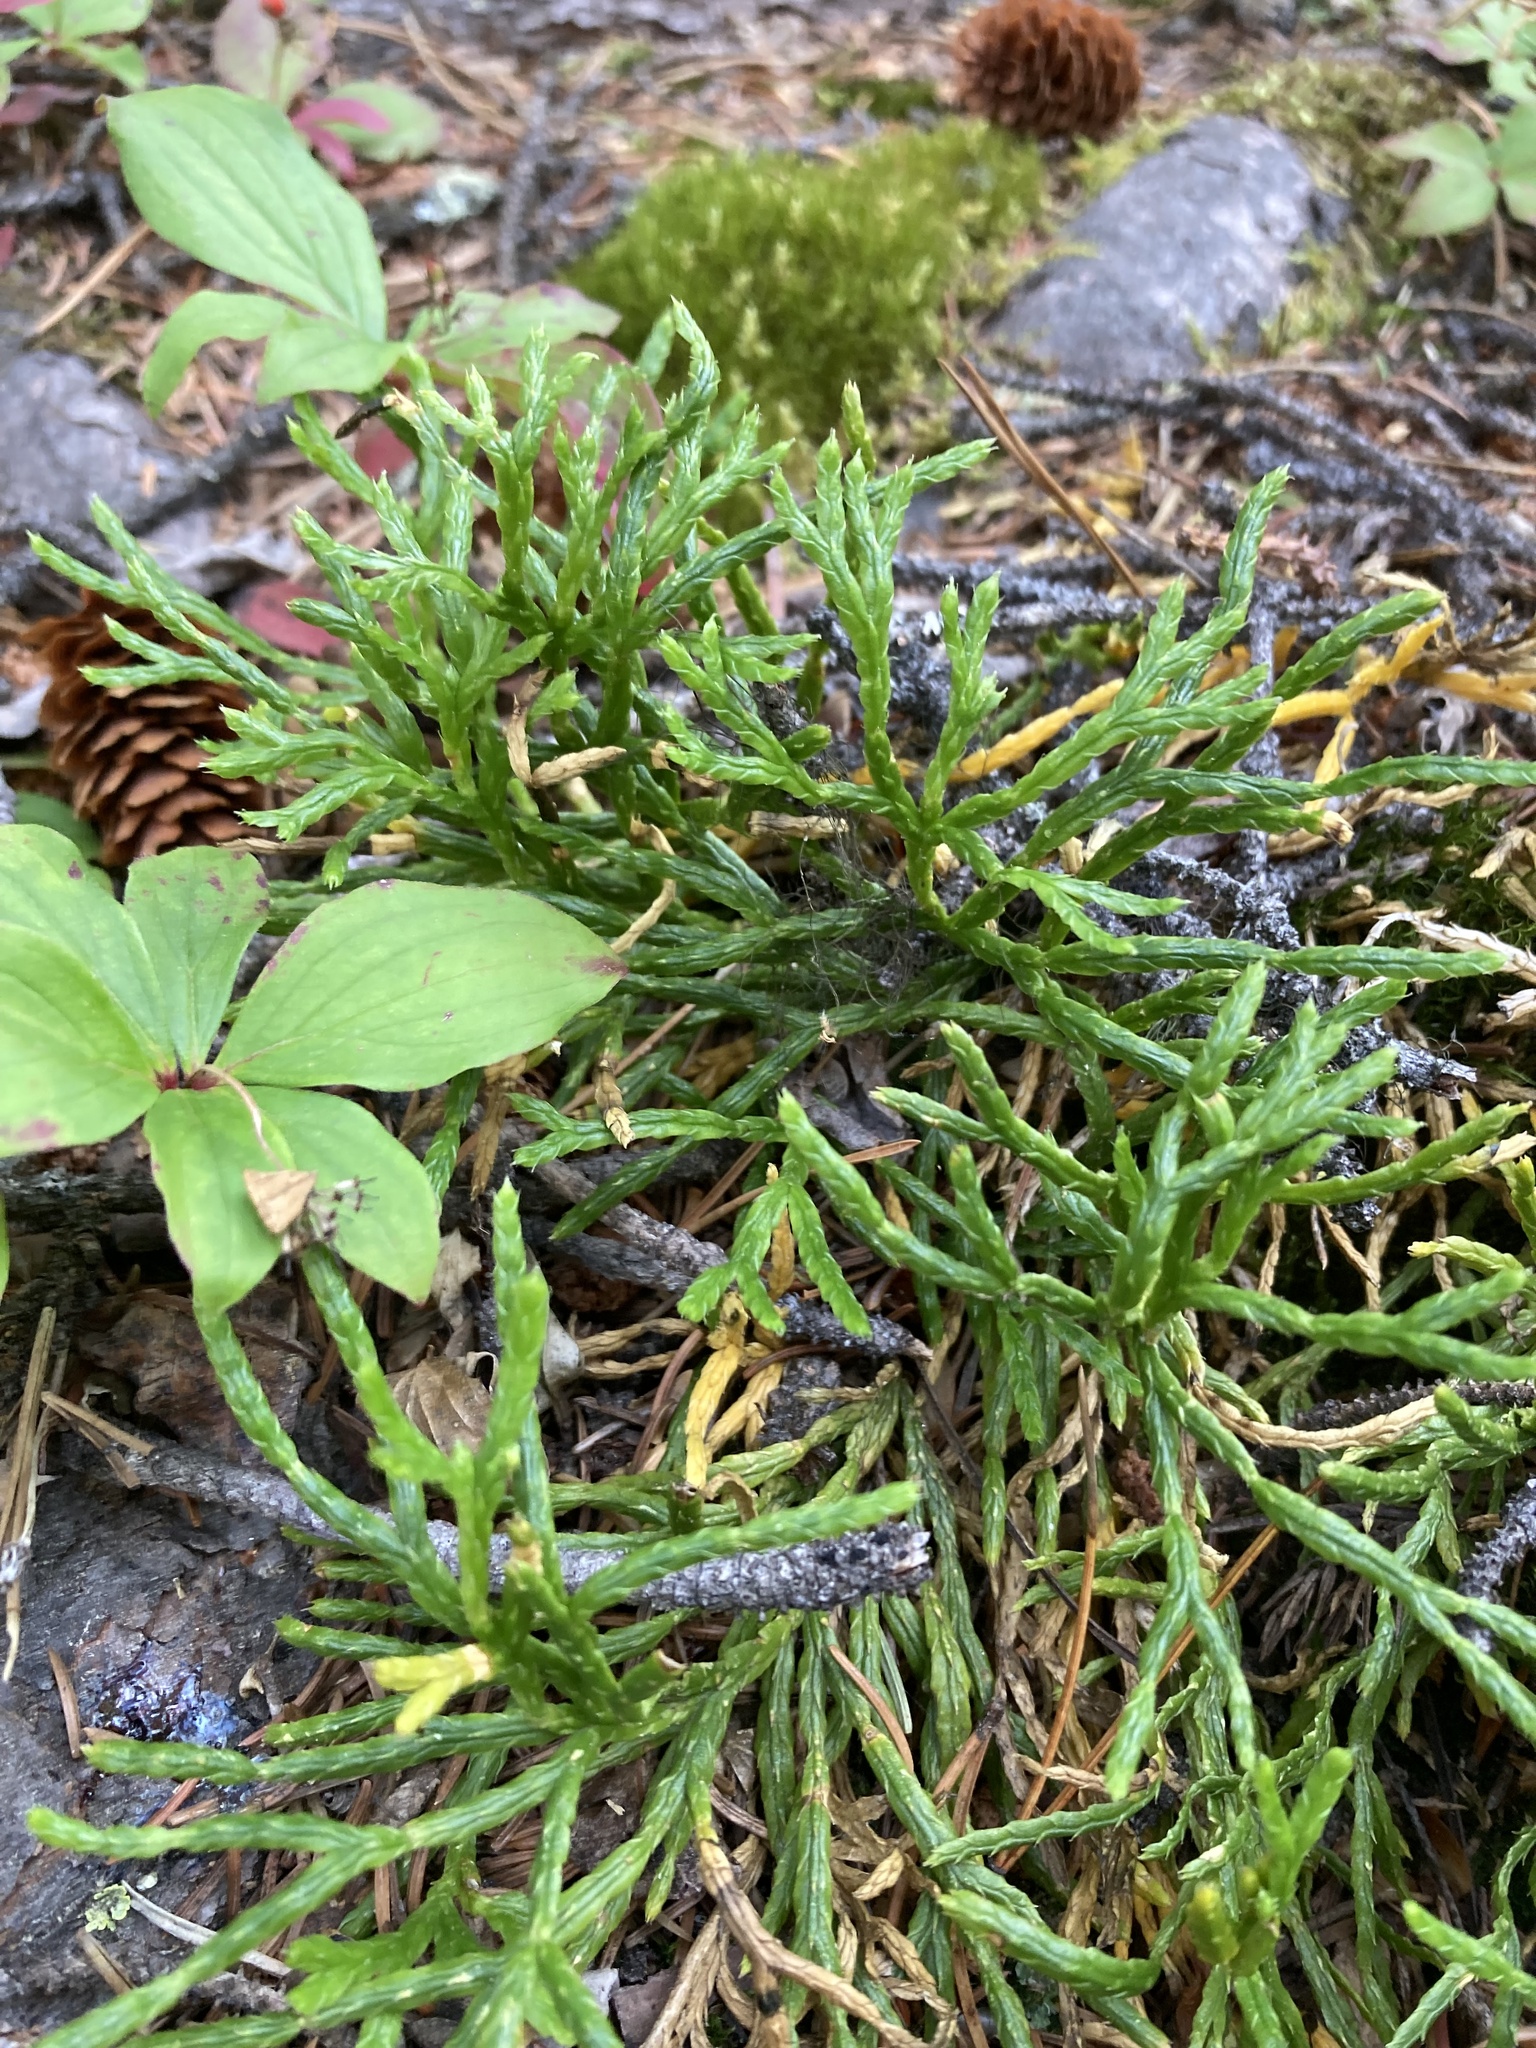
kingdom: Plantae
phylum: Tracheophyta
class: Lycopodiopsida
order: Lycopodiales
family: Lycopodiaceae
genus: Diphasiastrum
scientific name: Diphasiastrum complanatum
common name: Northern running-pine
